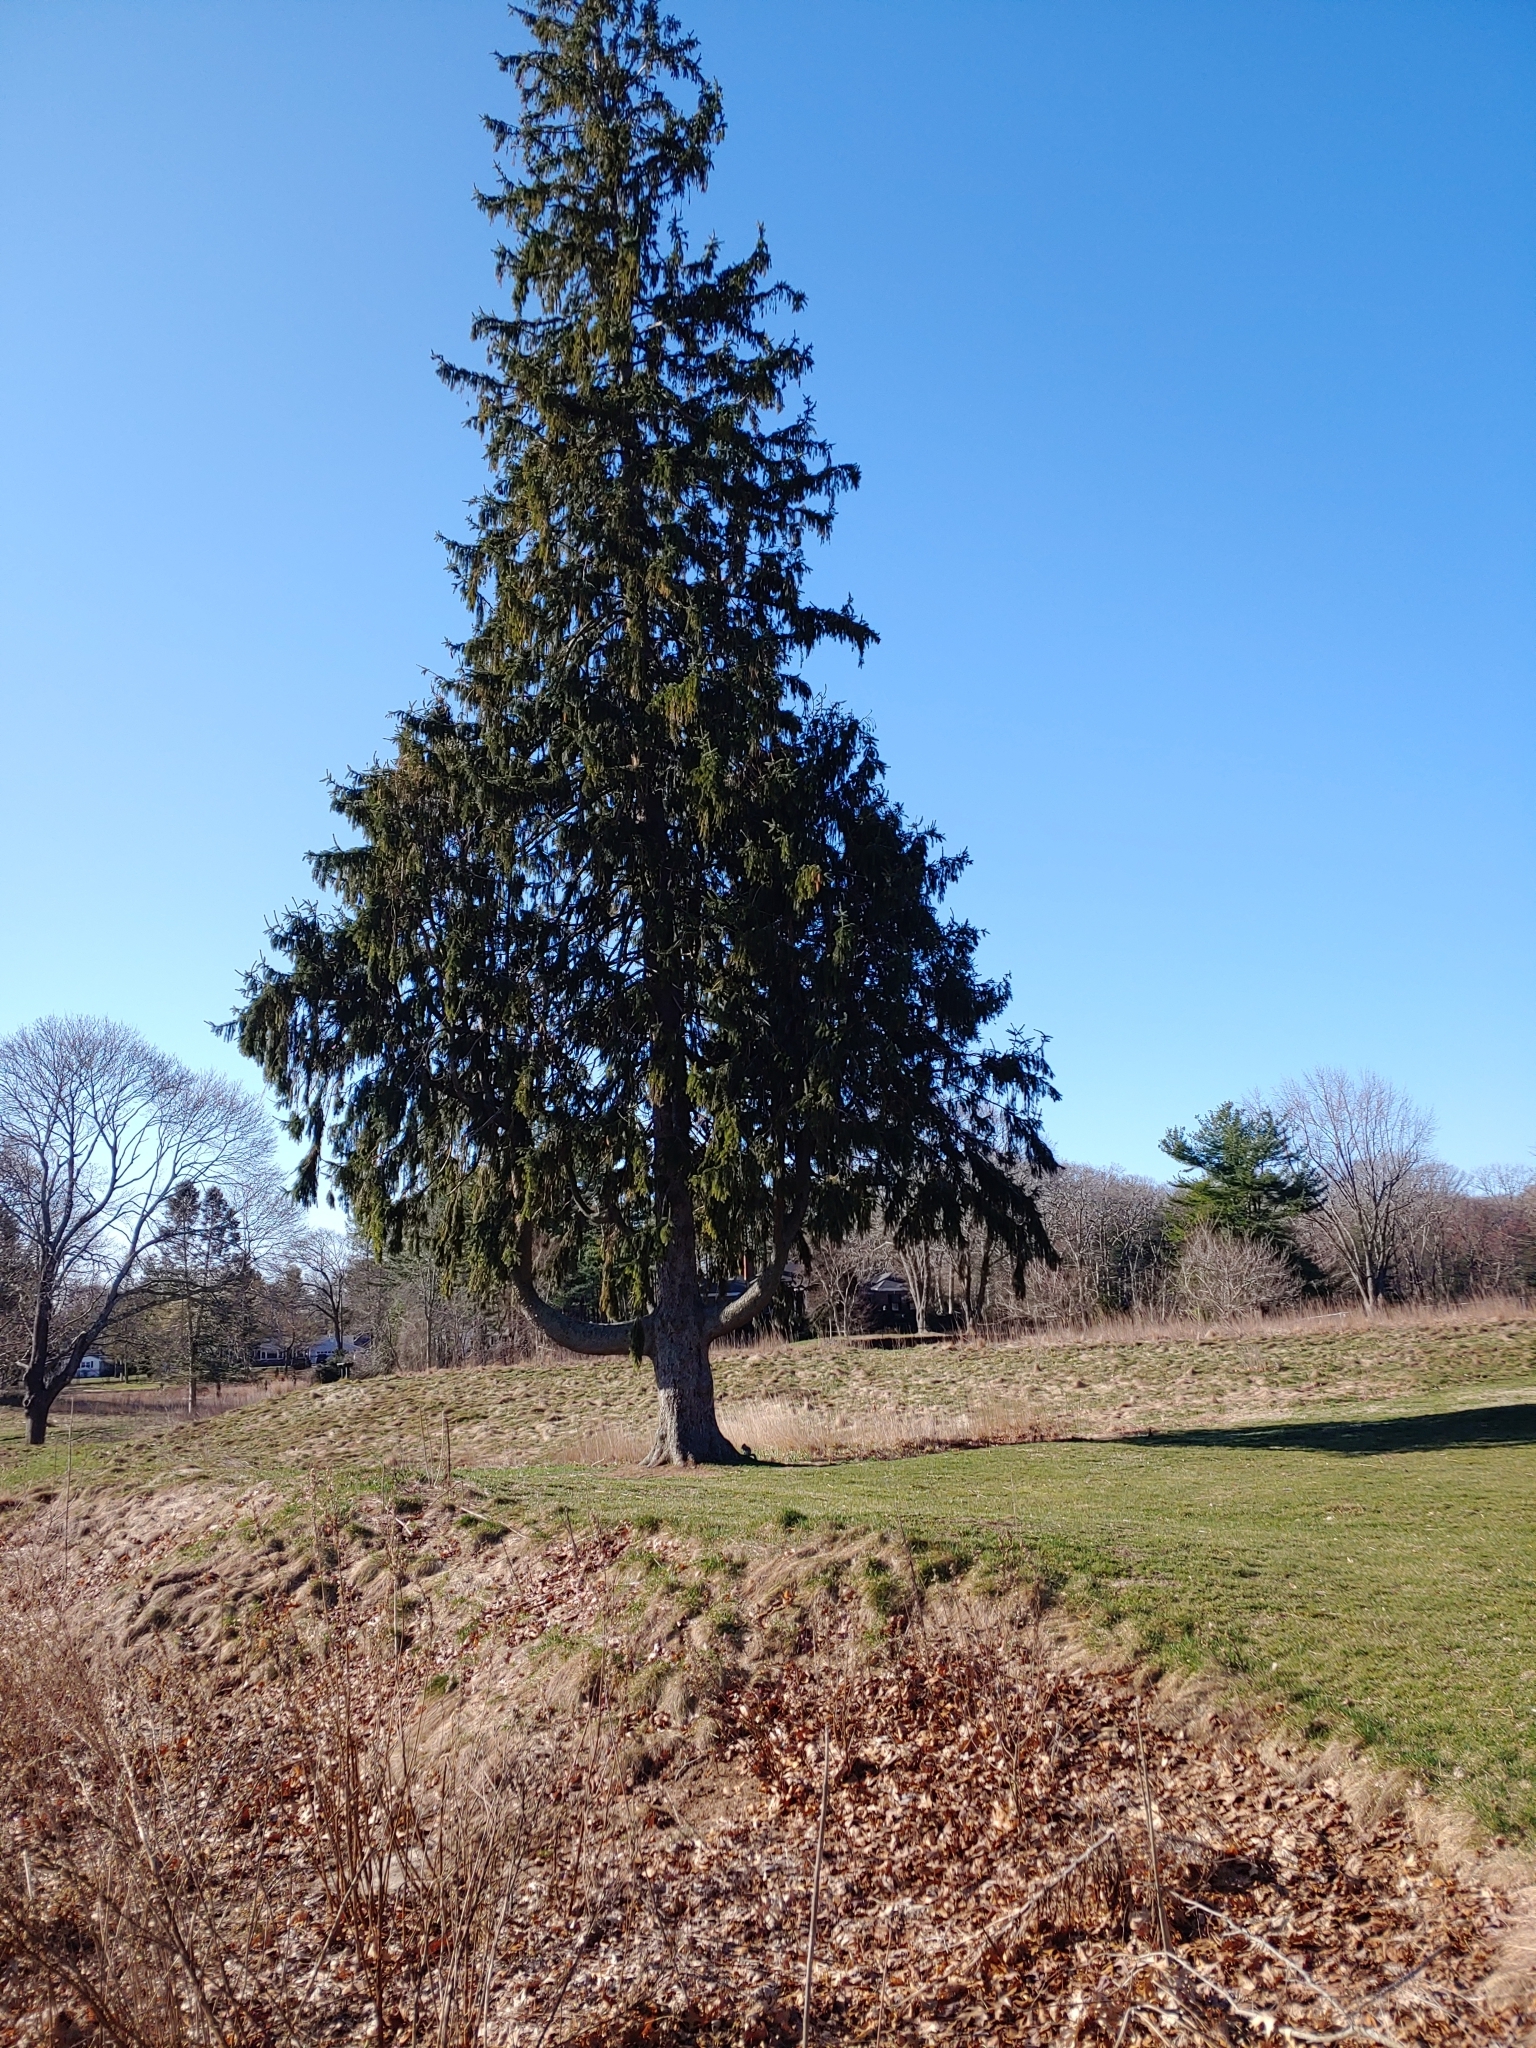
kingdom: Plantae
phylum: Tracheophyta
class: Pinopsida
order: Pinales
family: Pinaceae
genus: Picea
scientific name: Picea abies
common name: Norway spruce
